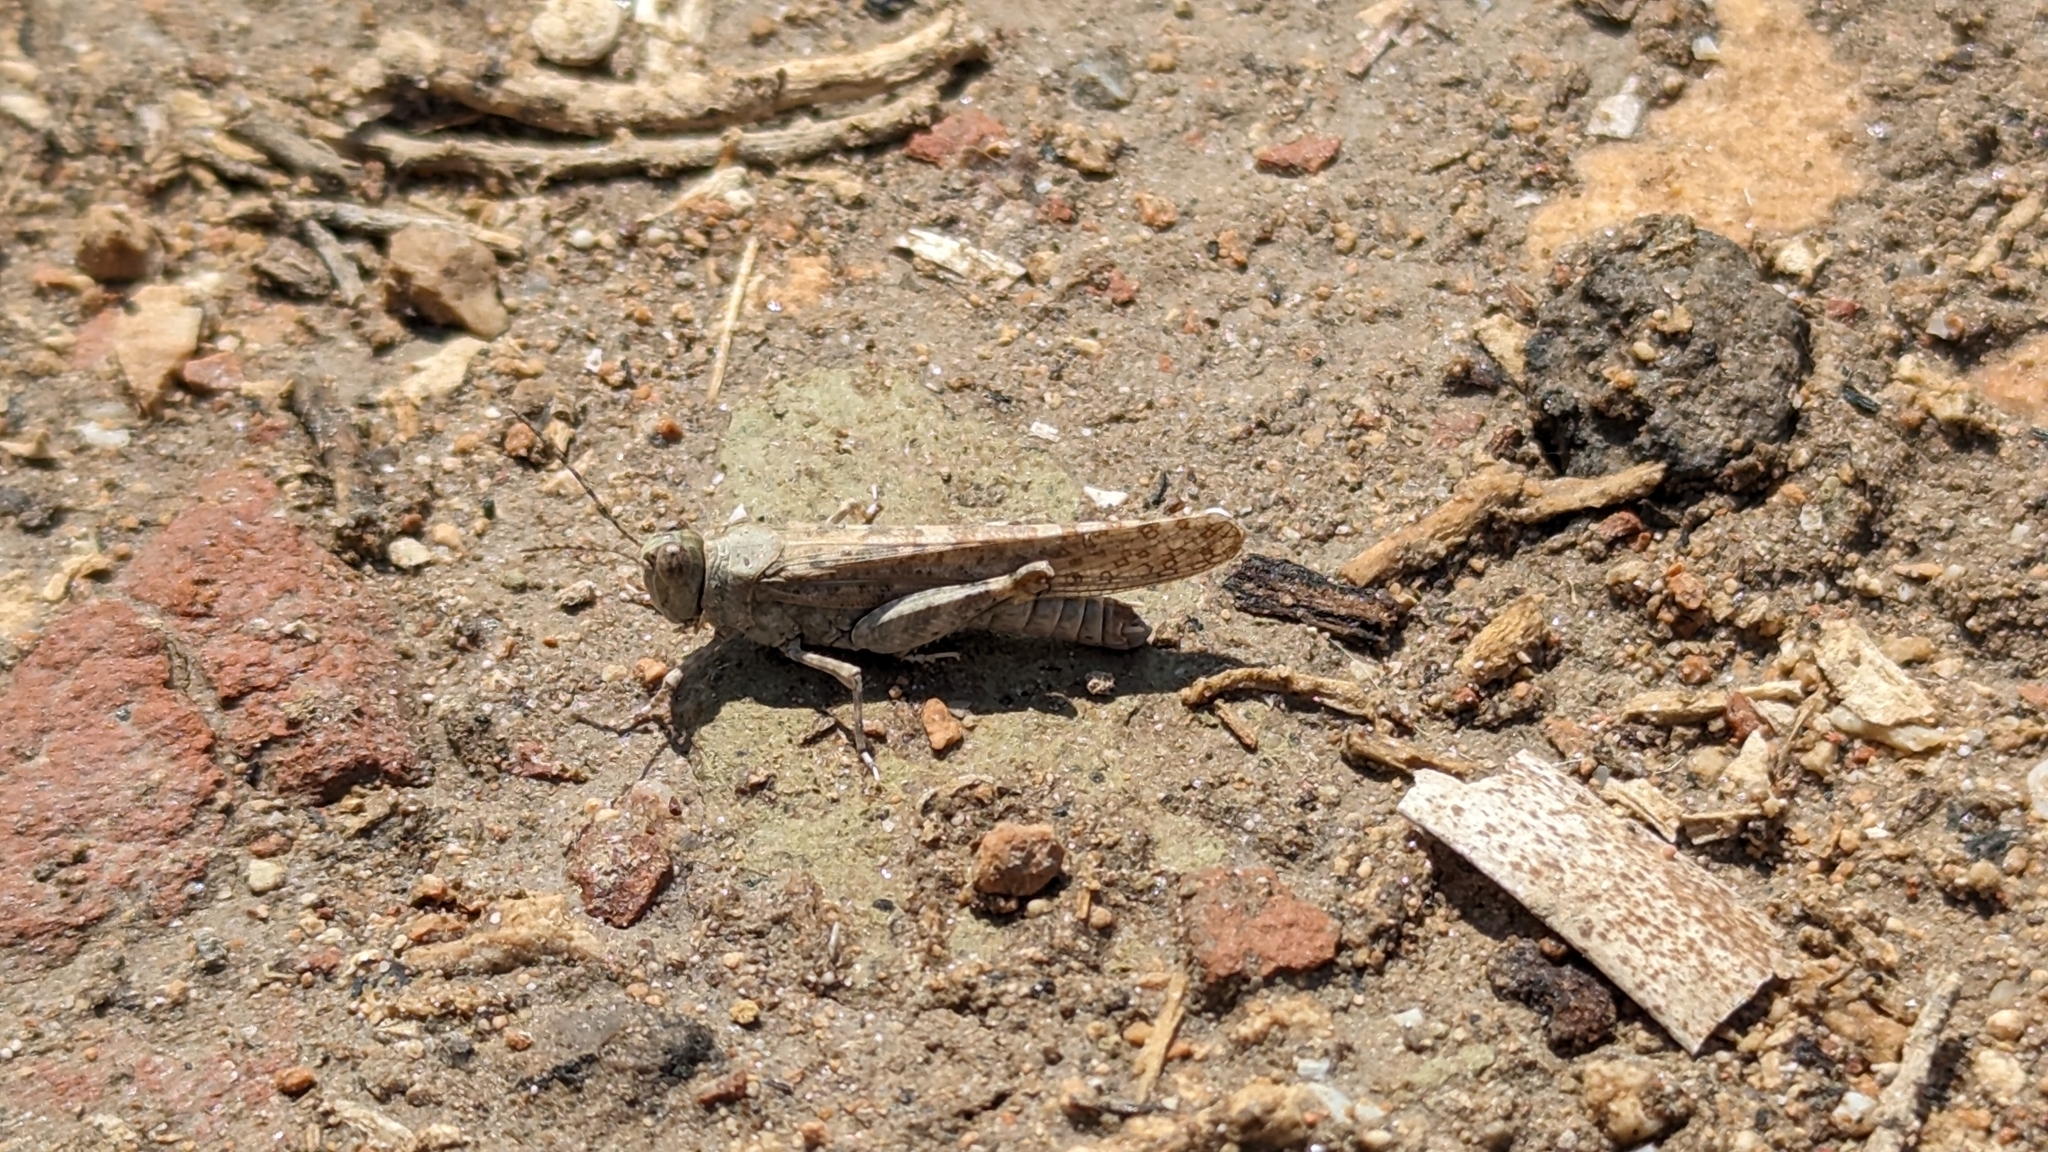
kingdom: Animalia
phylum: Arthropoda
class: Insecta
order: Orthoptera
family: Acrididae
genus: Sphingonotus
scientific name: Sphingonotus rubescens
